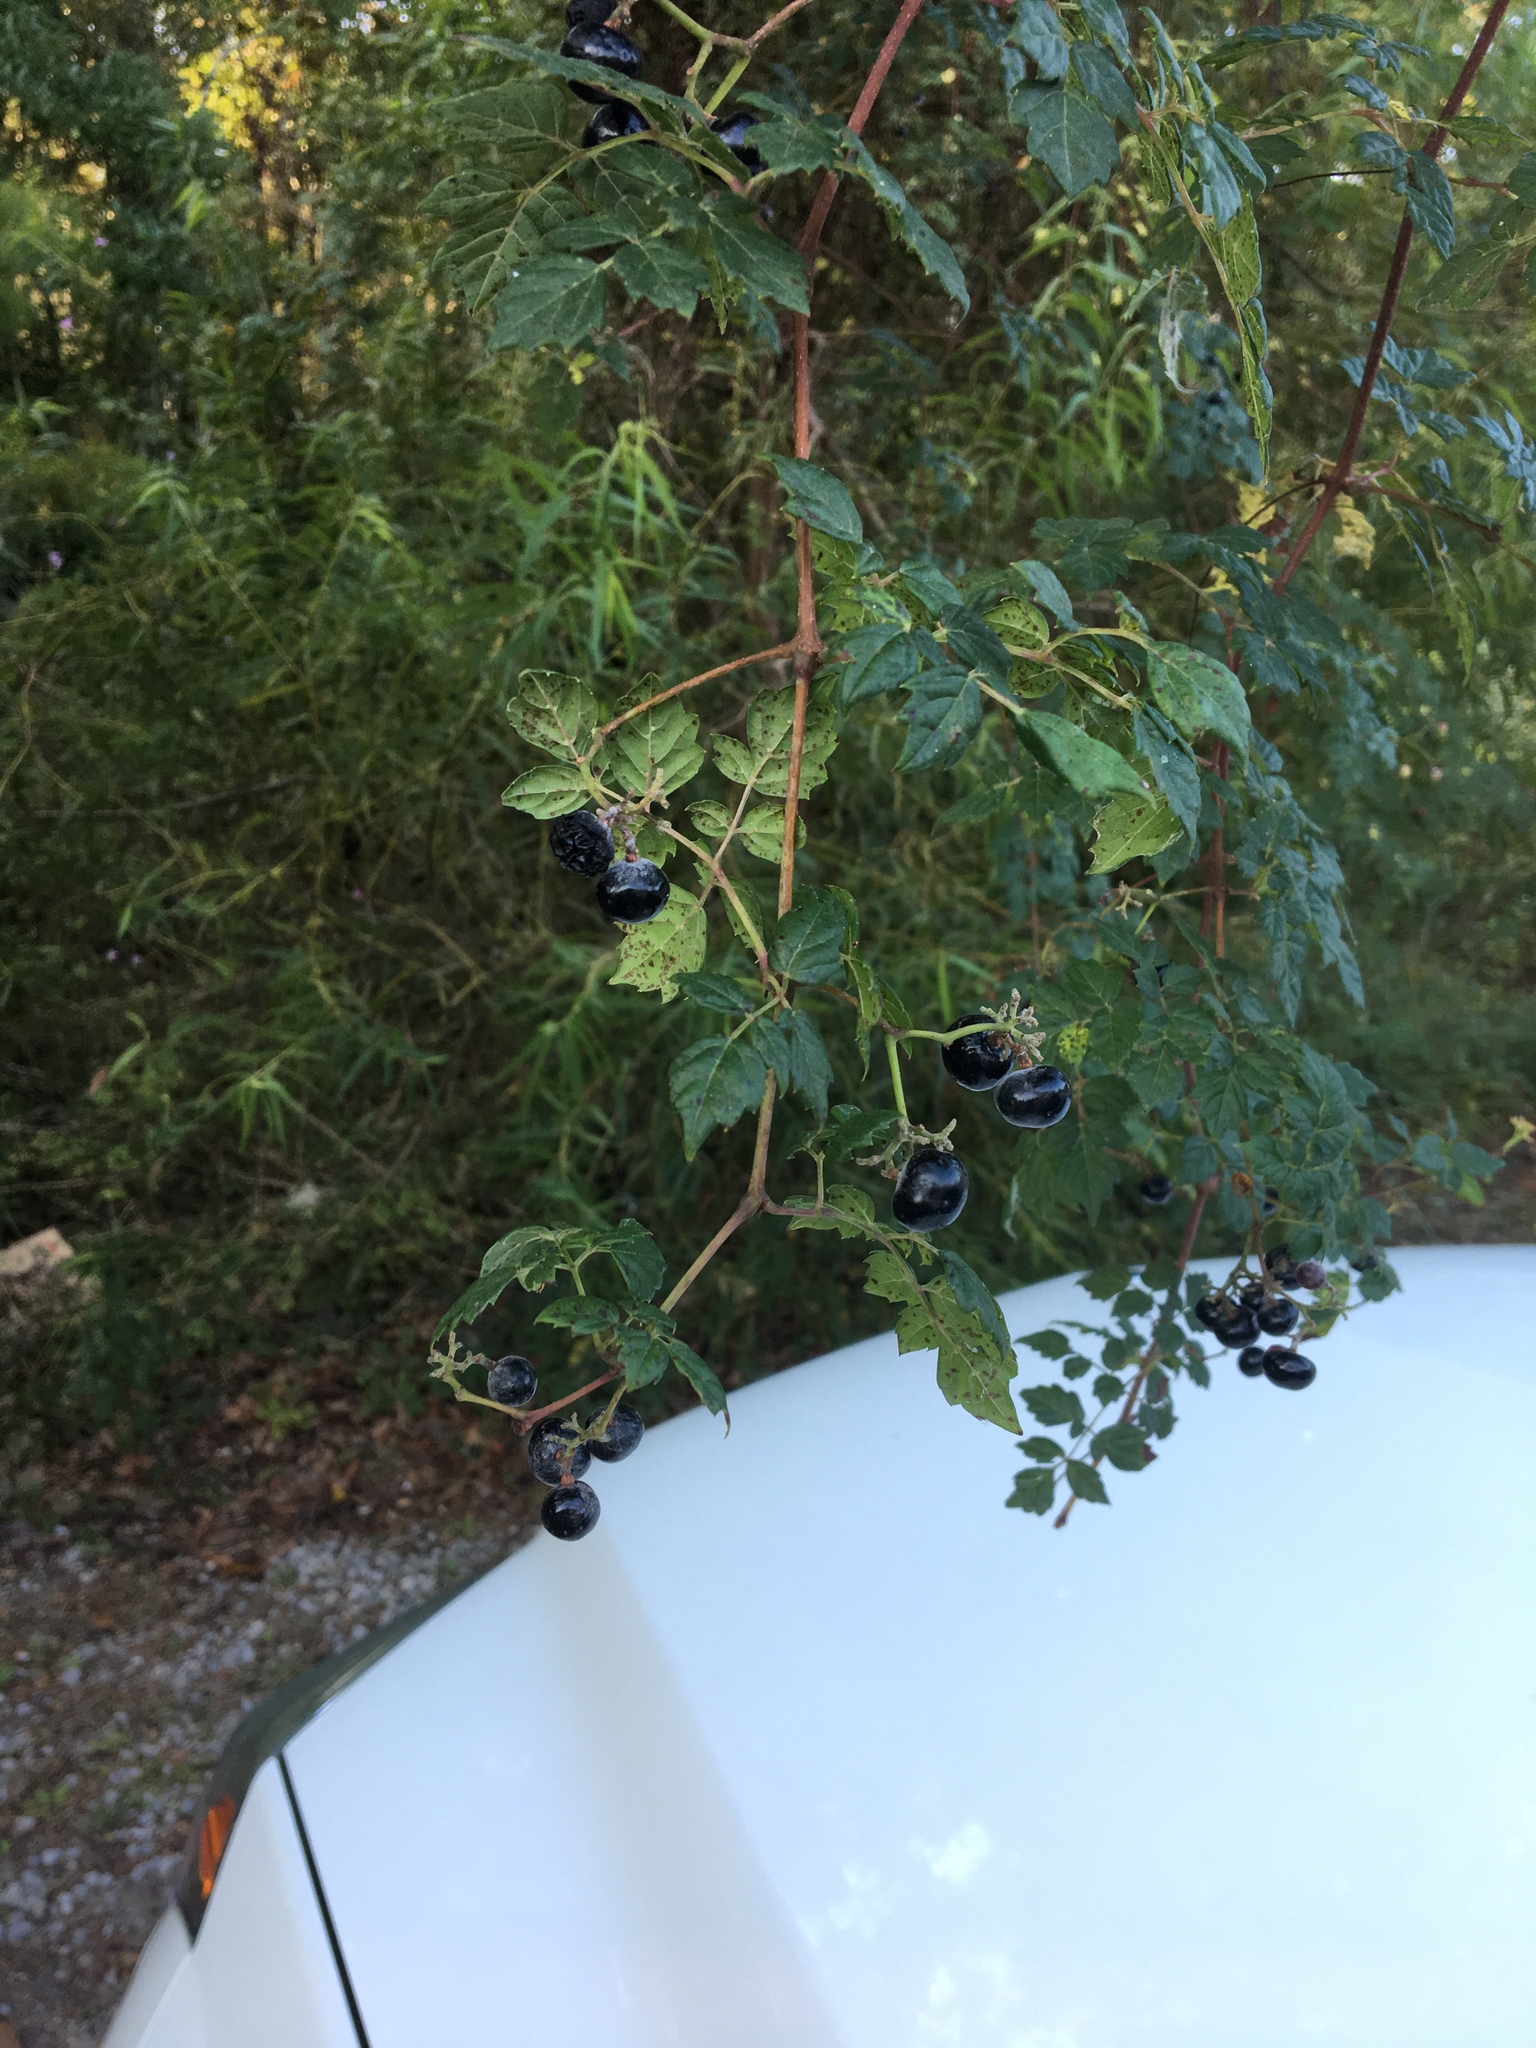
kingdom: Plantae
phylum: Tracheophyta
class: Magnoliopsida
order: Vitales
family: Vitaceae
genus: Nekemias
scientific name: Nekemias arborea
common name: Peppervine
